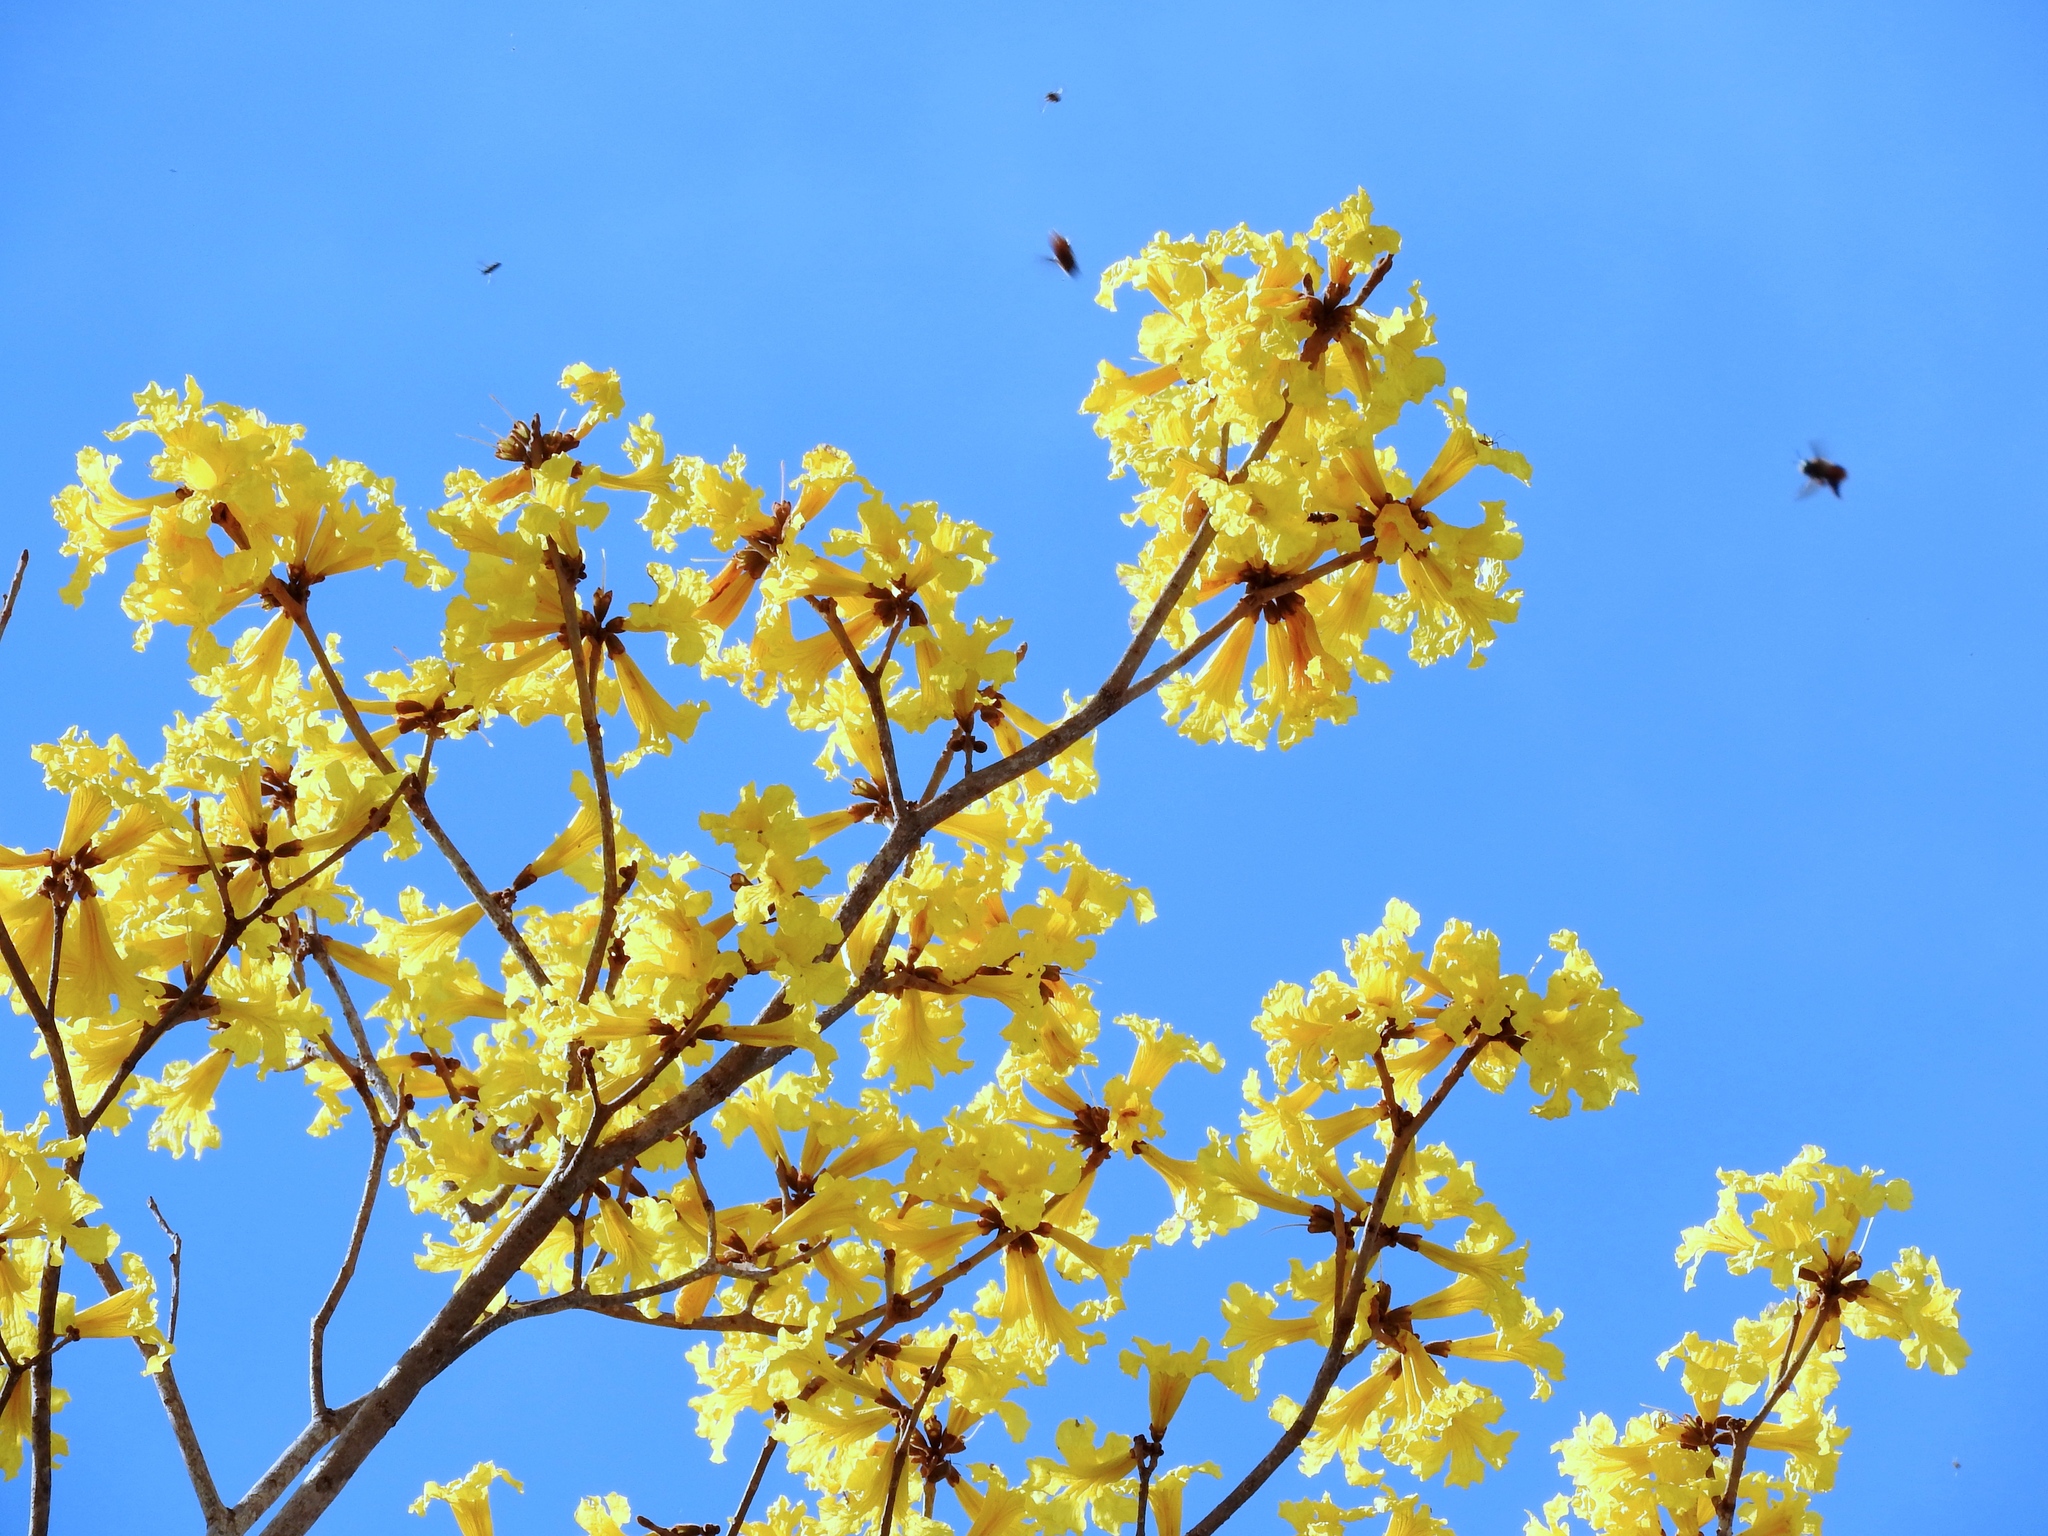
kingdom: Plantae
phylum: Tracheophyta
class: Magnoliopsida
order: Lamiales
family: Bignoniaceae
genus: Handroanthus
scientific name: Handroanthus chrysanthus
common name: Trumpet trees
